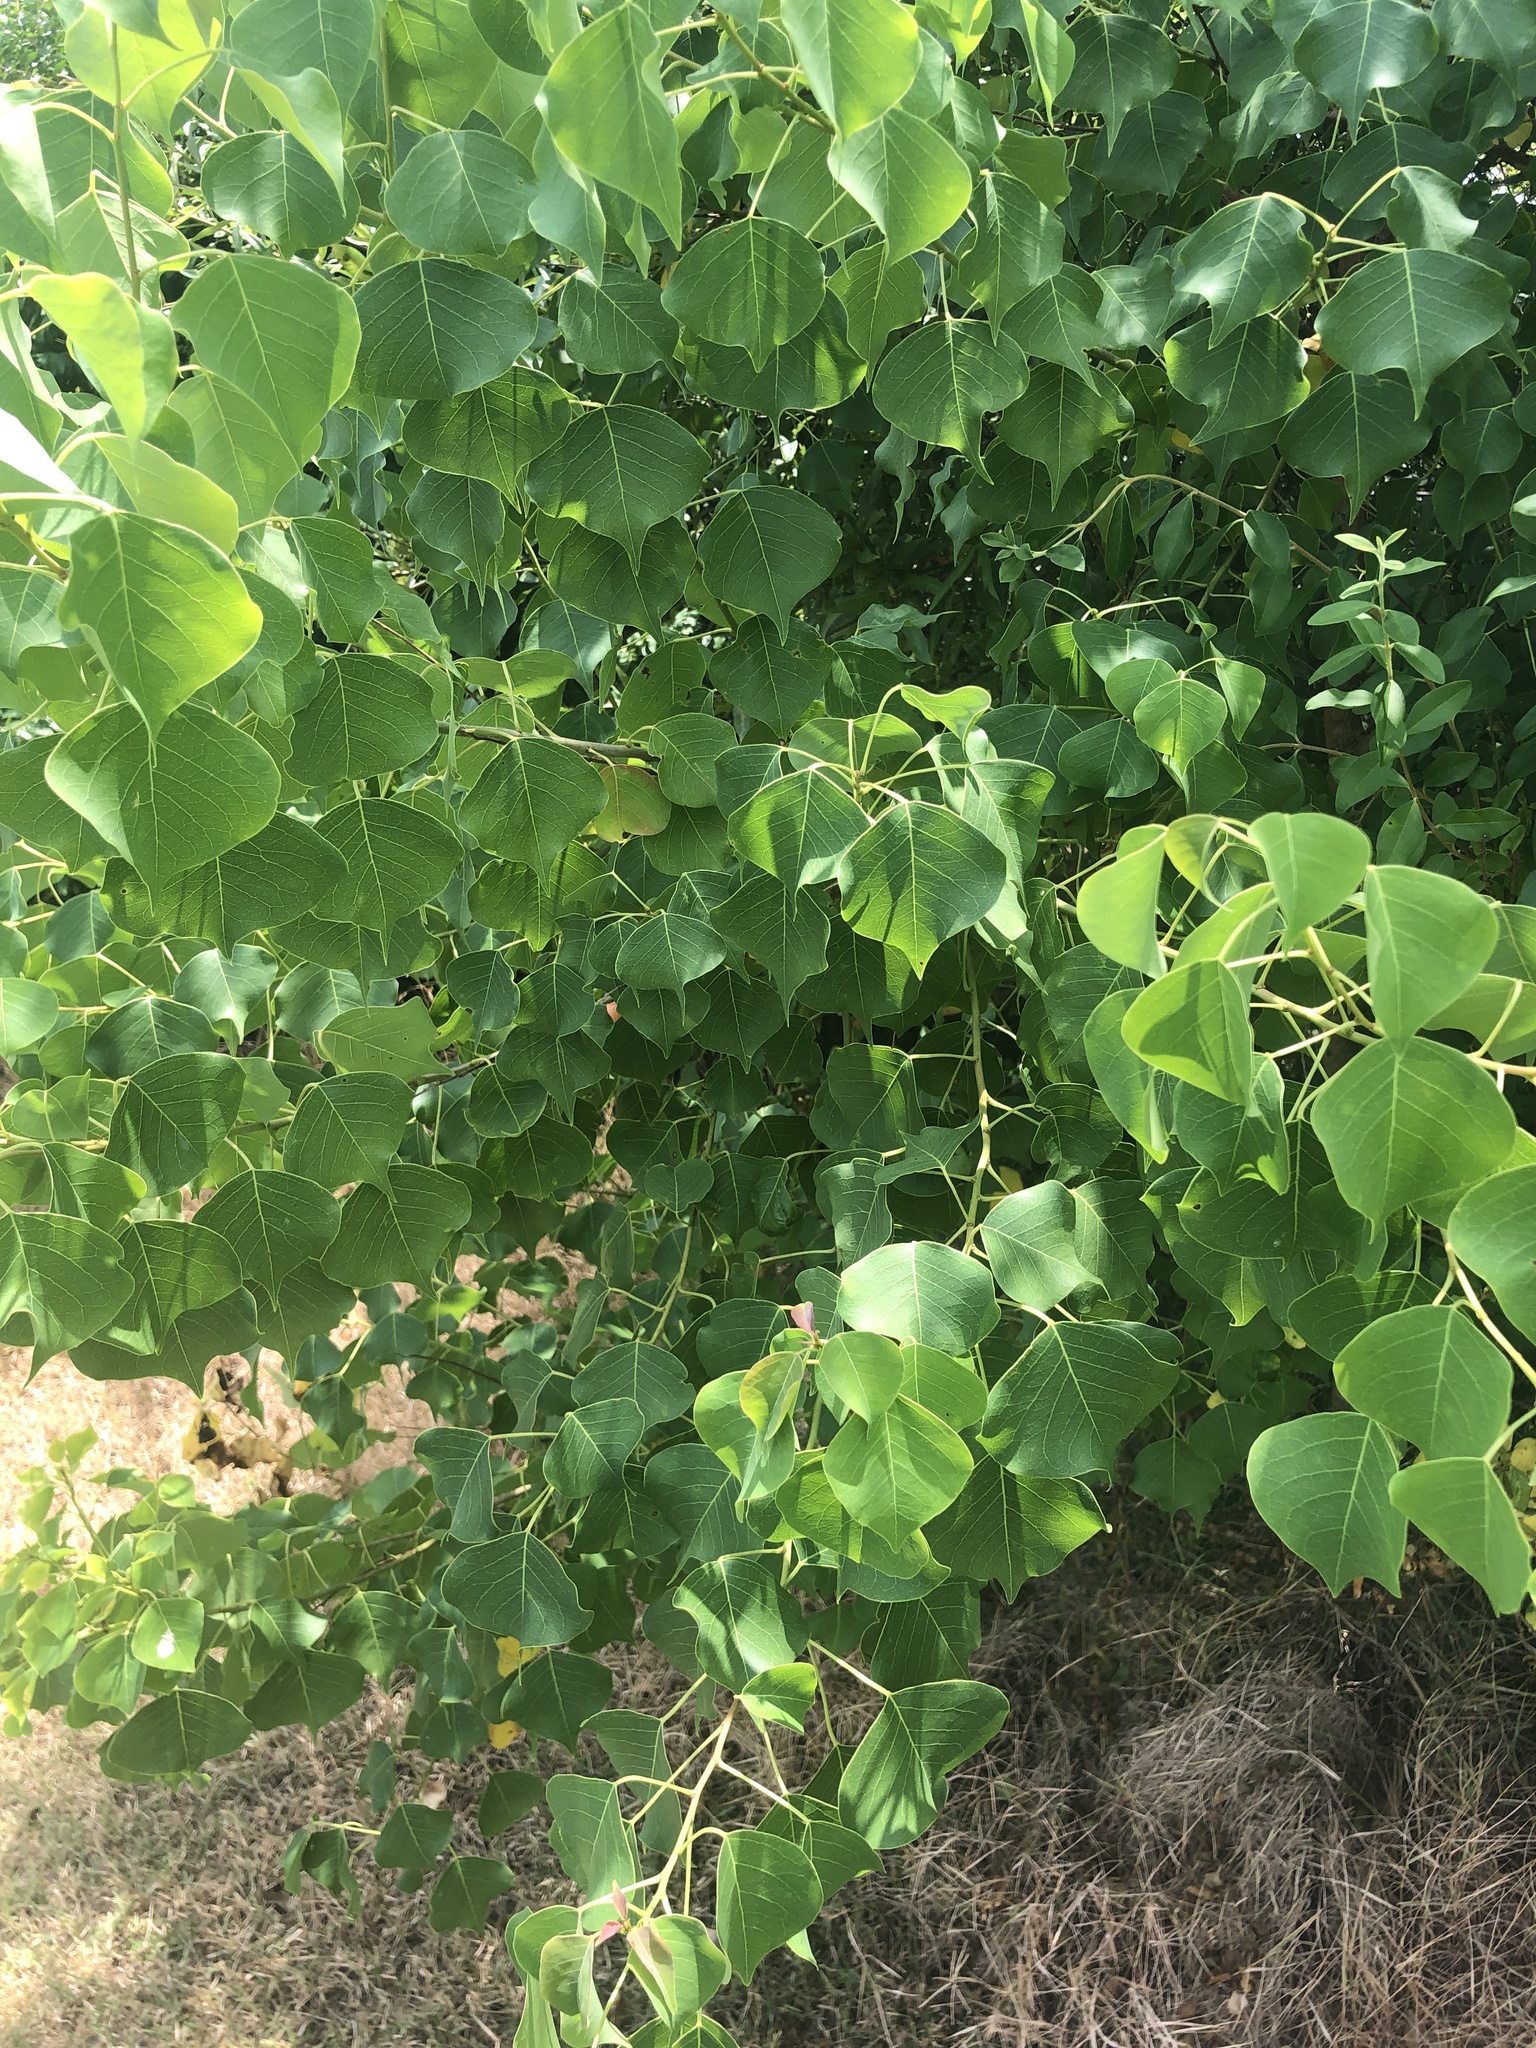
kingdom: Plantae
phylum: Tracheophyta
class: Magnoliopsida
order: Malpighiales
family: Euphorbiaceae
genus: Triadica
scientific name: Triadica sebifera
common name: Chinese tallow
